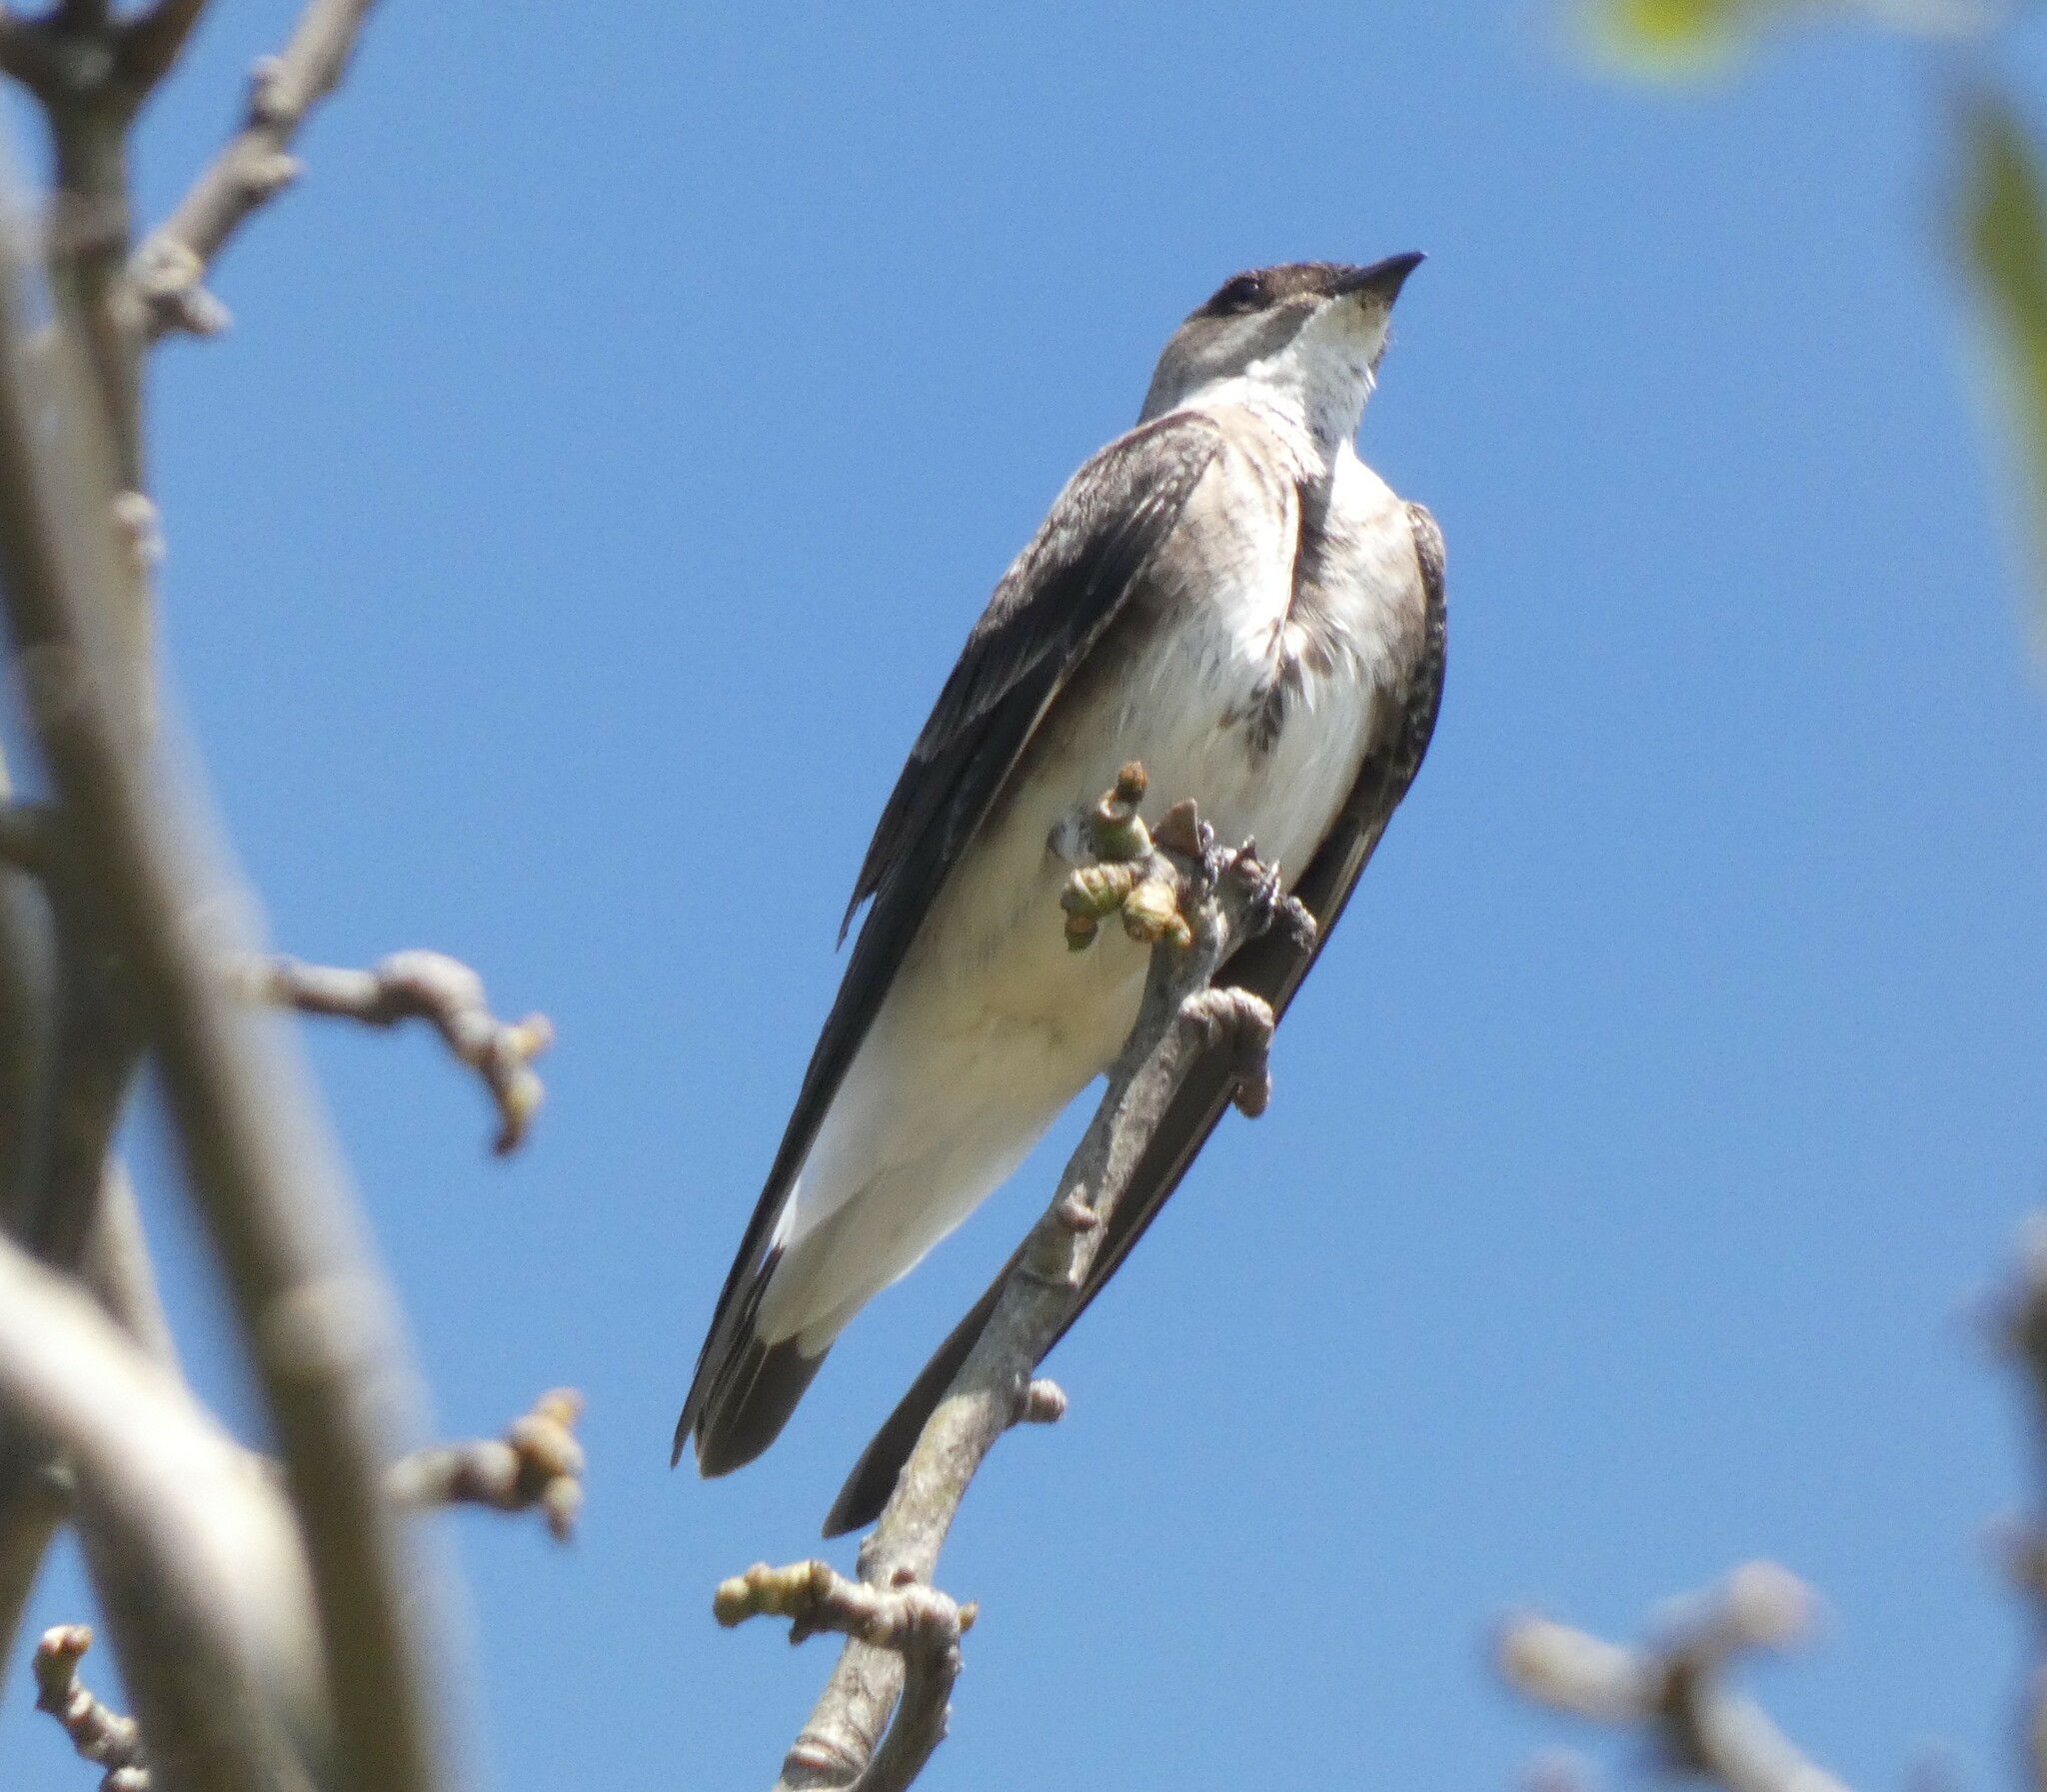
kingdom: Animalia
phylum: Chordata
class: Aves
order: Passeriformes
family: Hirundinidae
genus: Progne
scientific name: Progne tapera
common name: Brown-chested martin
